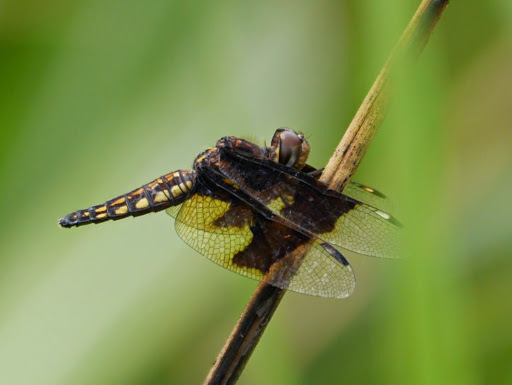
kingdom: Animalia
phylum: Arthropoda
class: Insecta
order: Odonata
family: Libellulidae
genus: Palpopleura
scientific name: Palpopleura lucia
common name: Lucia widow
